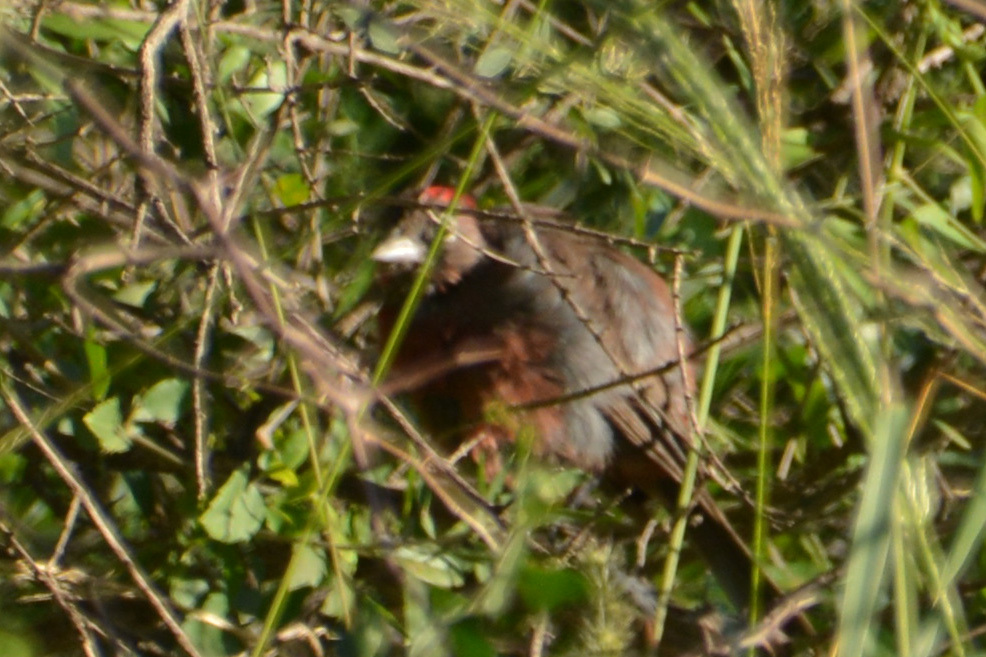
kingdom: Animalia
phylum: Chordata
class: Aves
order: Passeriformes
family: Thraupidae
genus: Coryphospingus
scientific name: Coryphospingus cucullatus
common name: Red pileated finch
